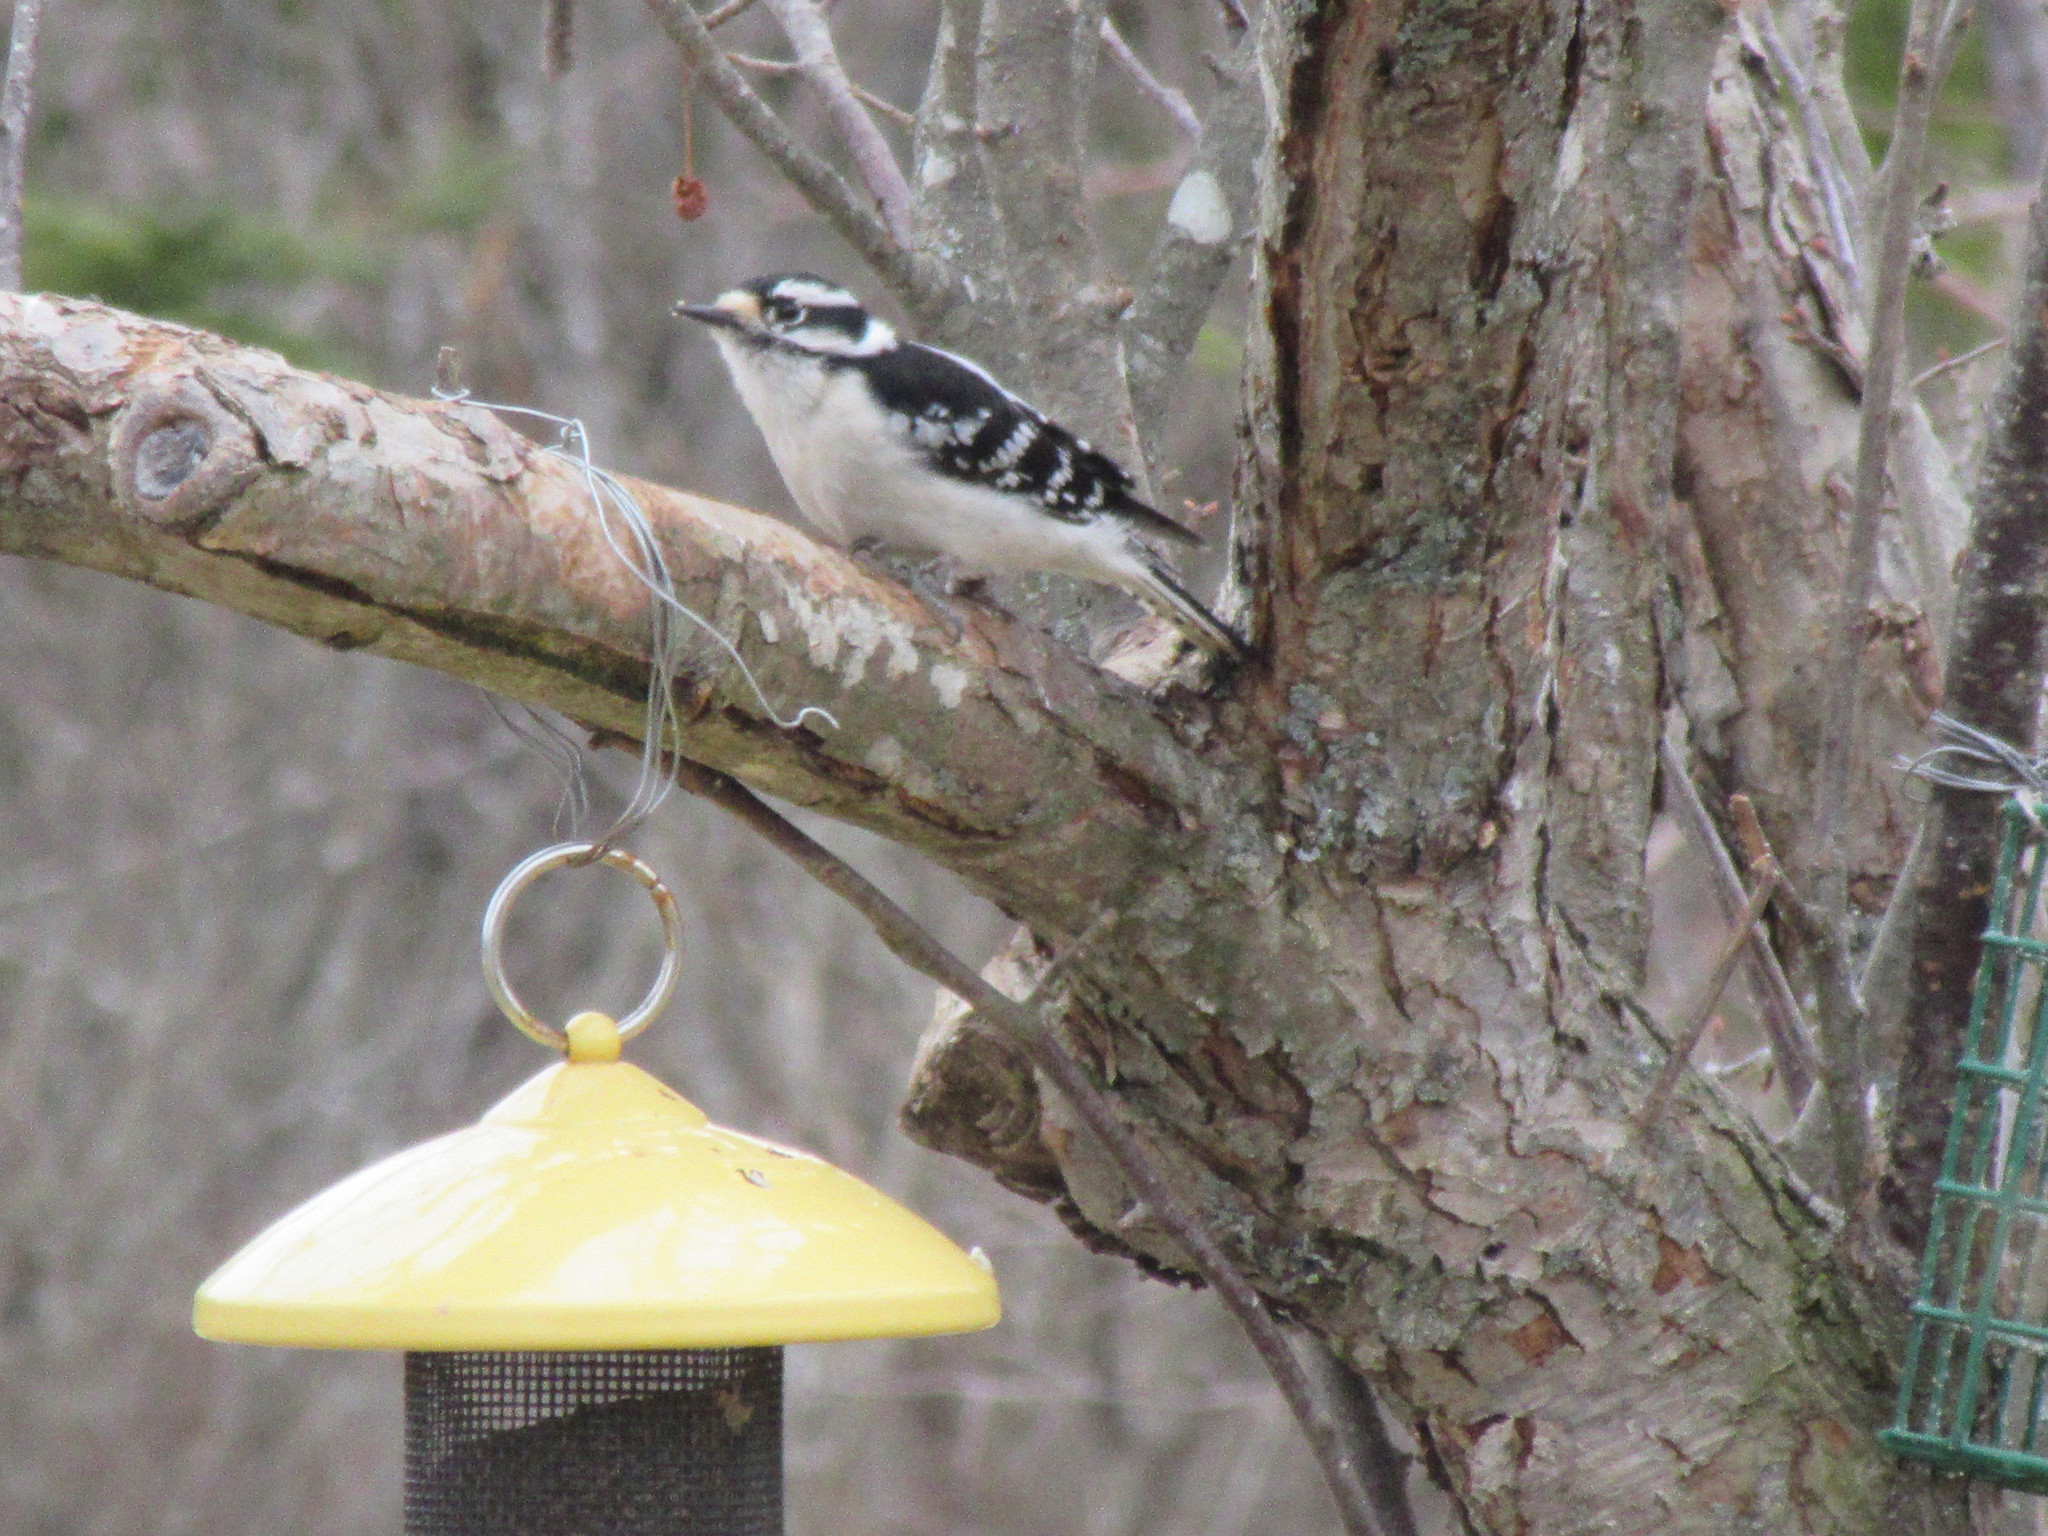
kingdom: Animalia
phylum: Chordata
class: Aves
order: Piciformes
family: Picidae
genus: Dryobates
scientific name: Dryobates pubescens
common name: Downy woodpecker
